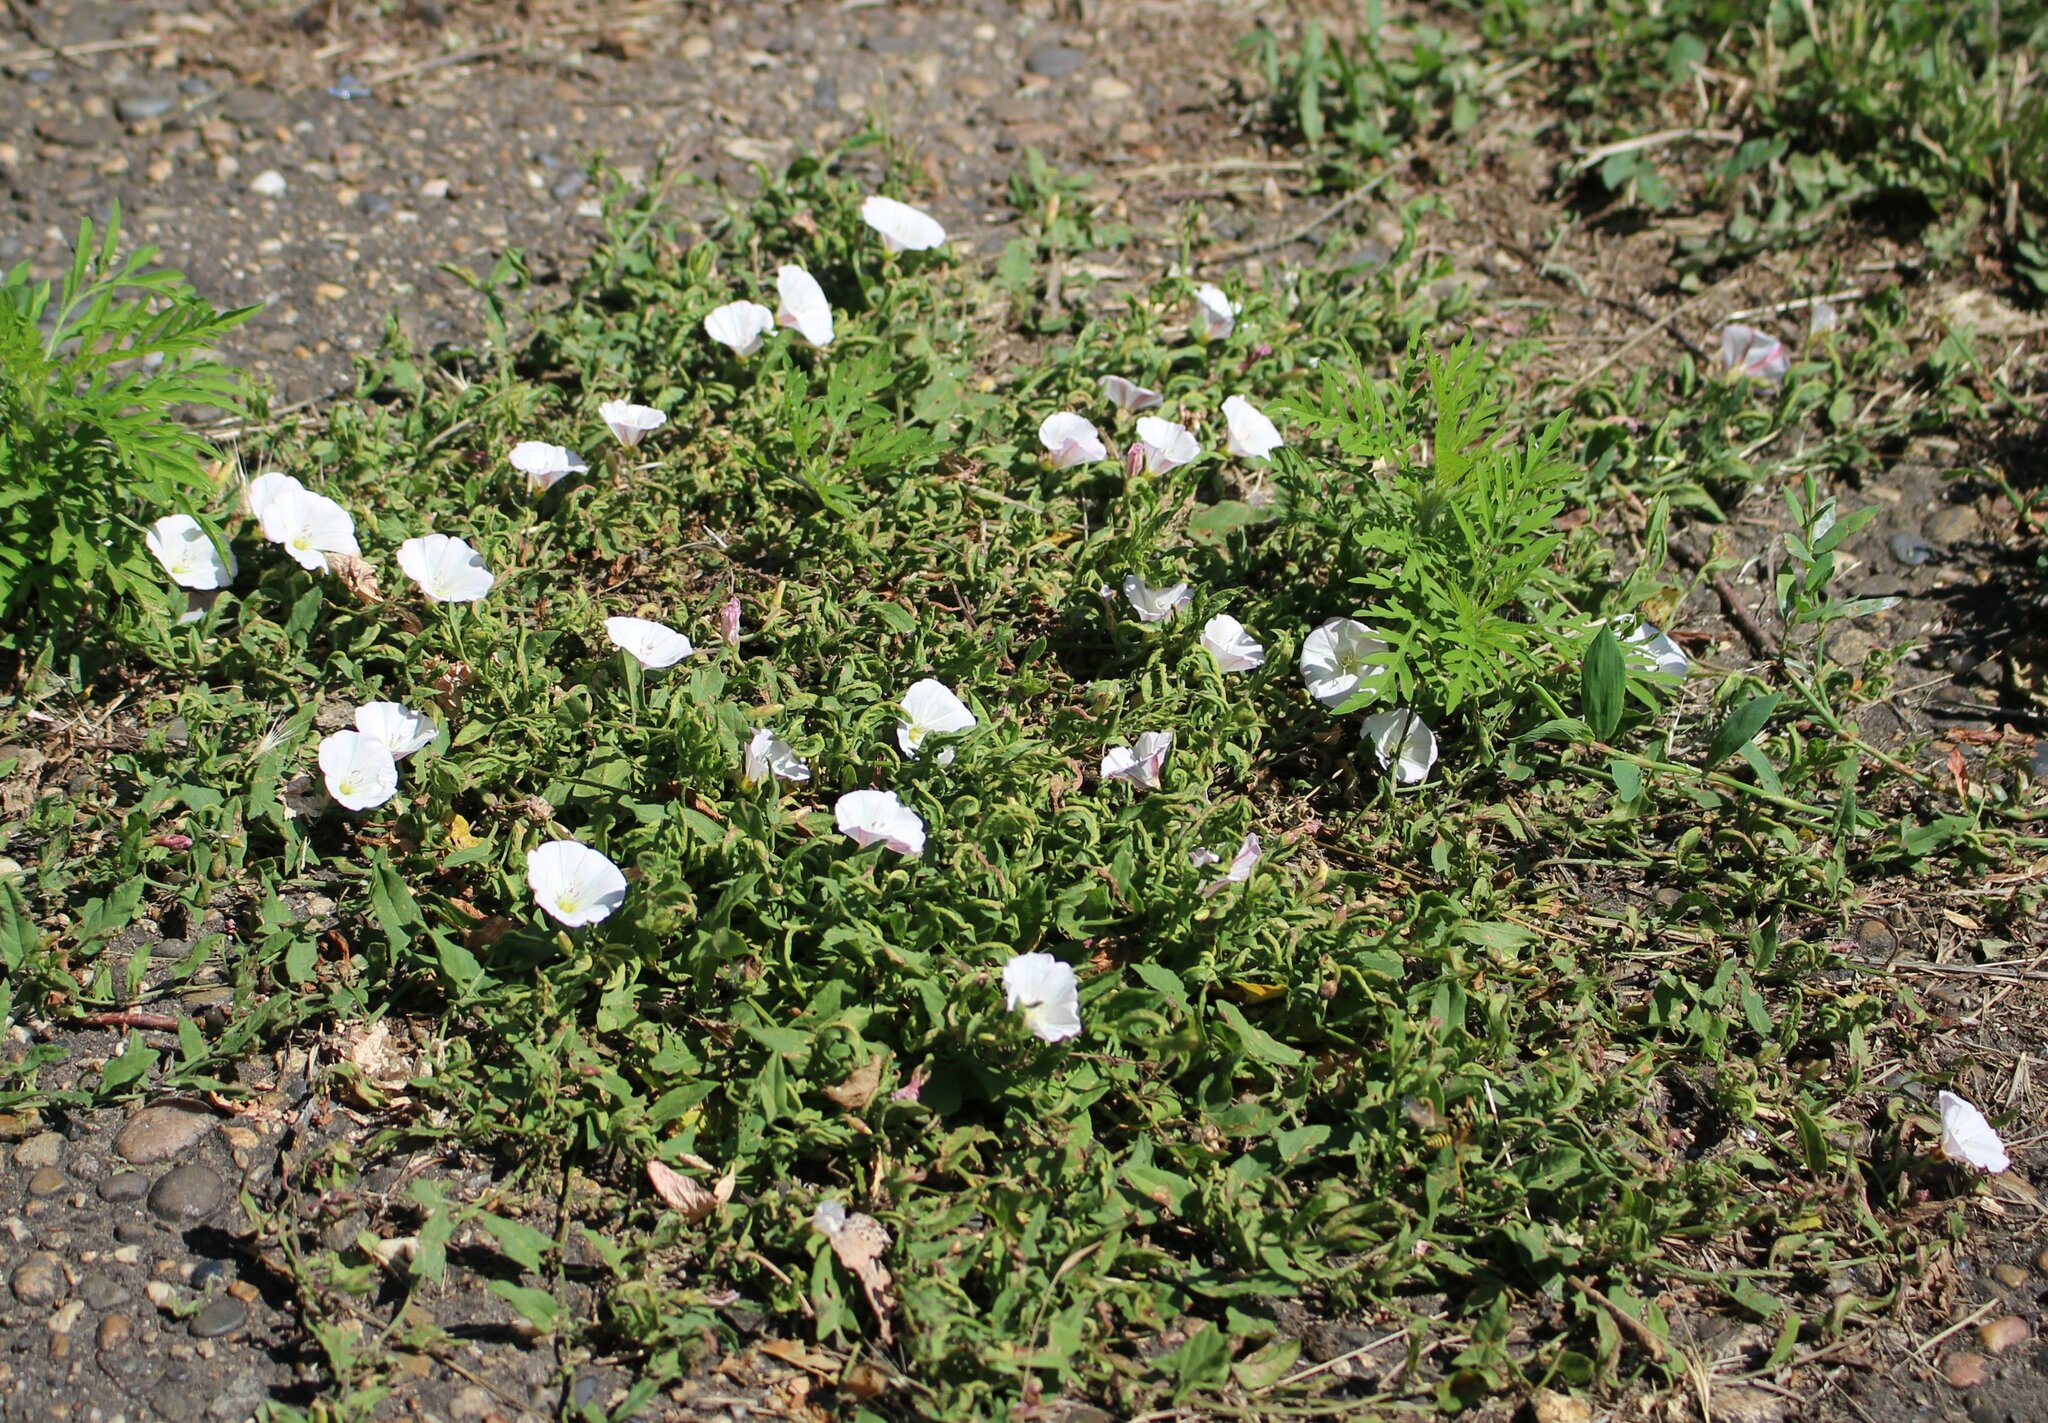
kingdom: Plantae
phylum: Tracheophyta
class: Magnoliopsida
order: Solanales
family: Convolvulaceae
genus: Convolvulus
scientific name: Convolvulus arvensis
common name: Field bindweed
